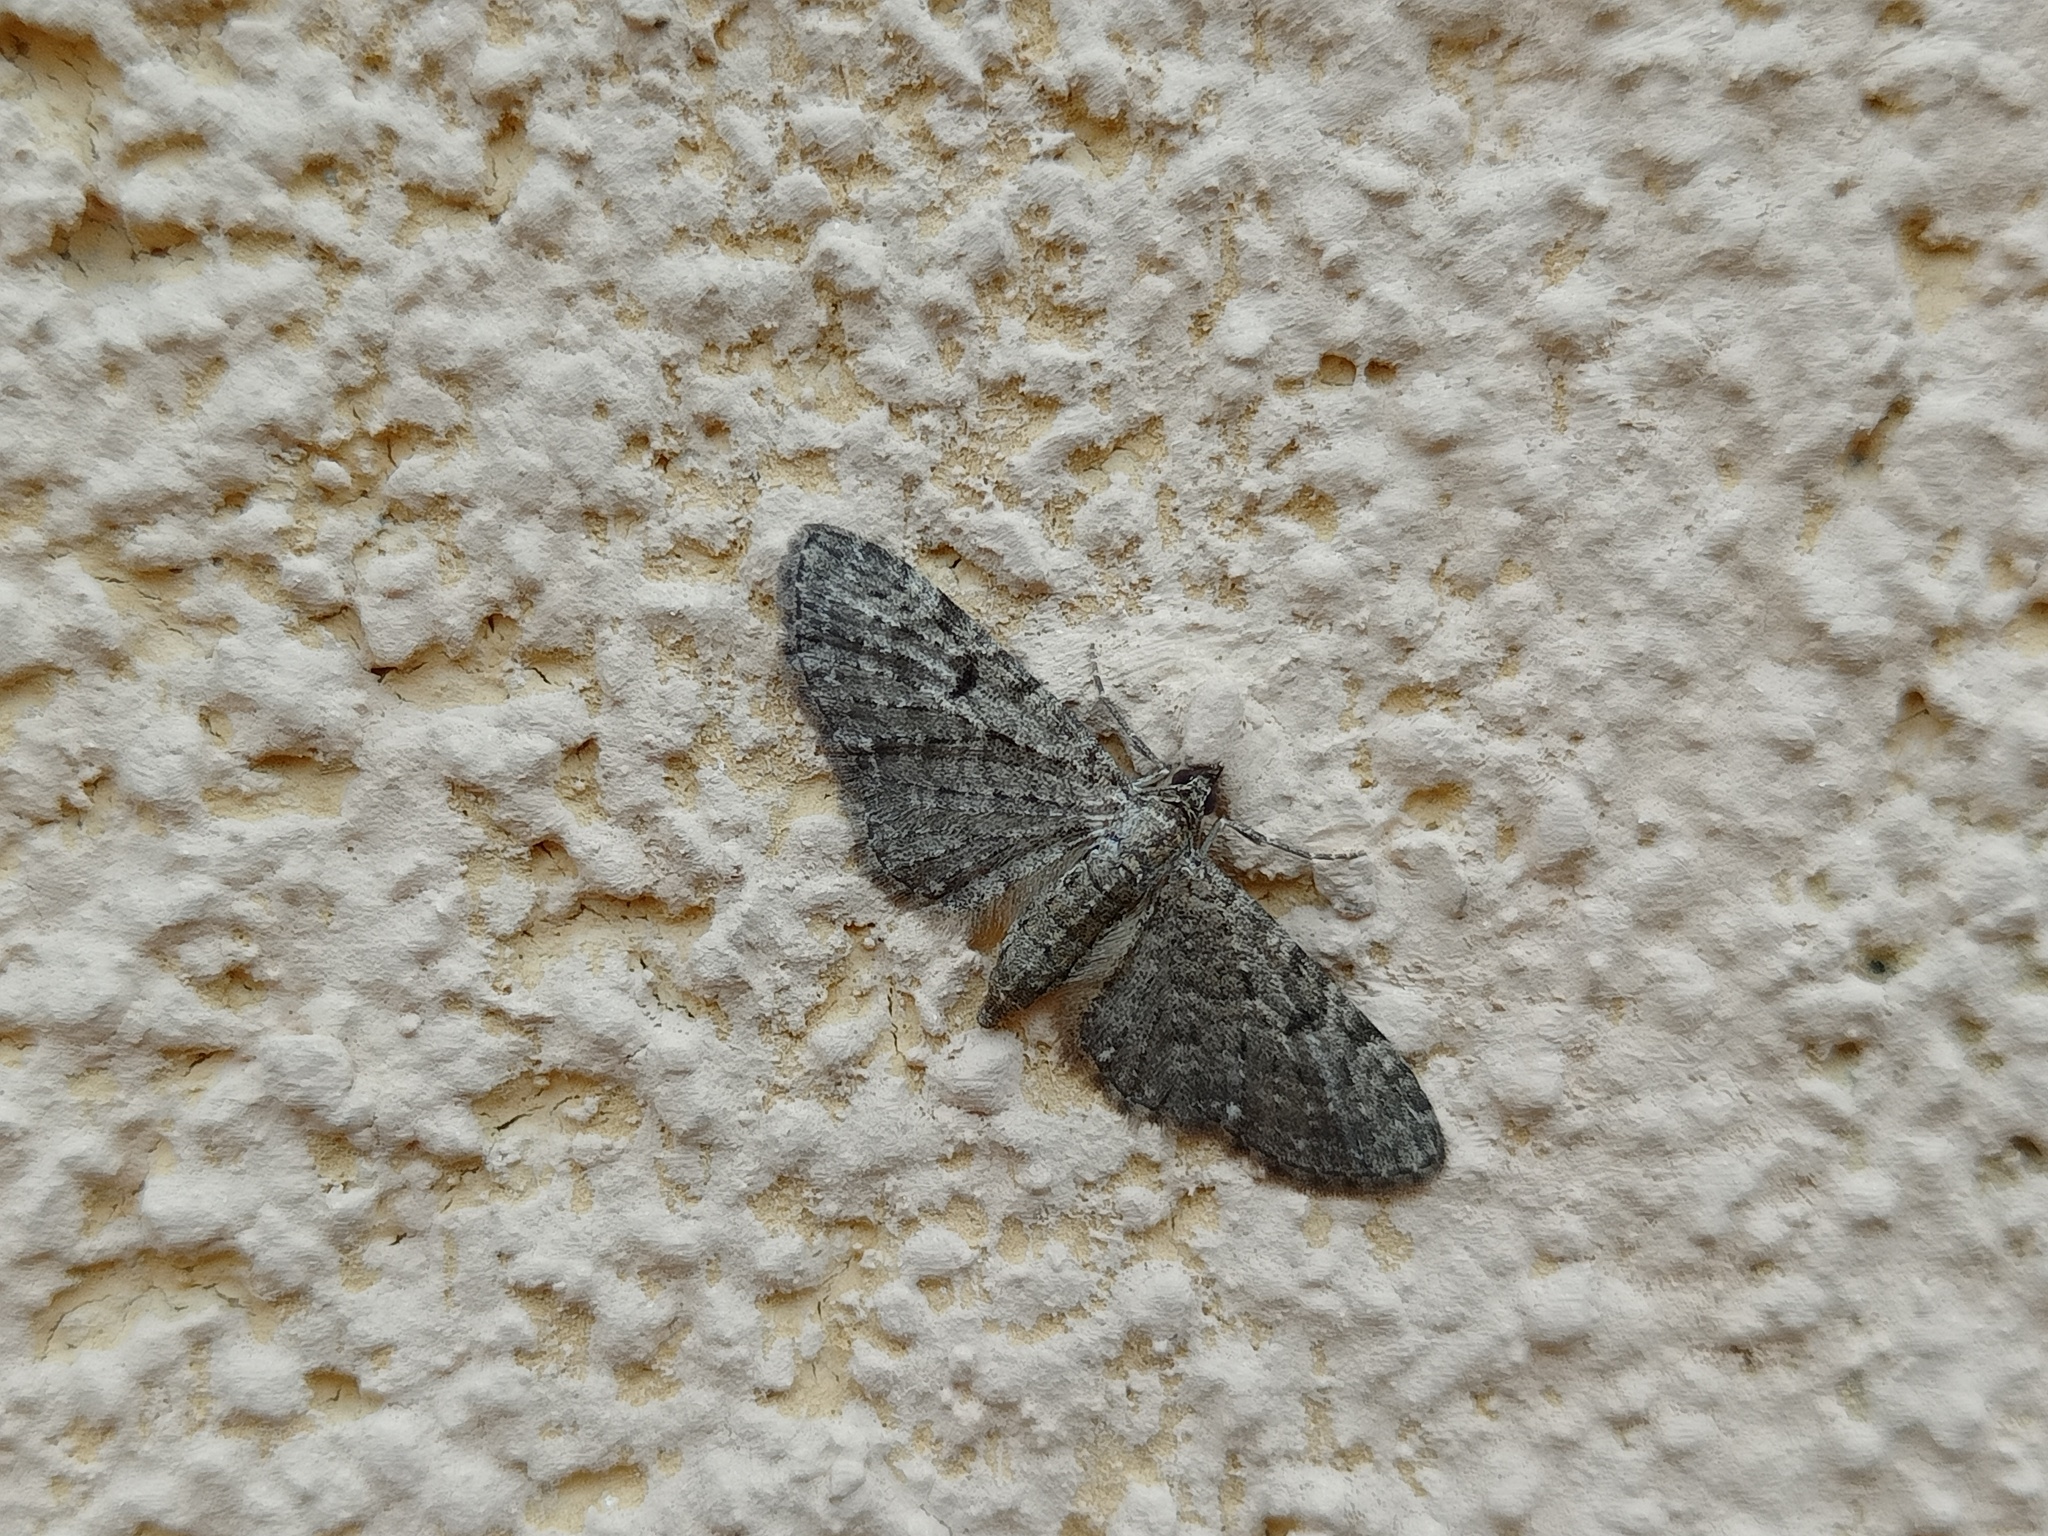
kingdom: Animalia
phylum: Arthropoda
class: Insecta
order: Lepidoptera
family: Geometridae
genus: Eupithecia
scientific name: Eupithecia subfuscata
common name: Grey pug
